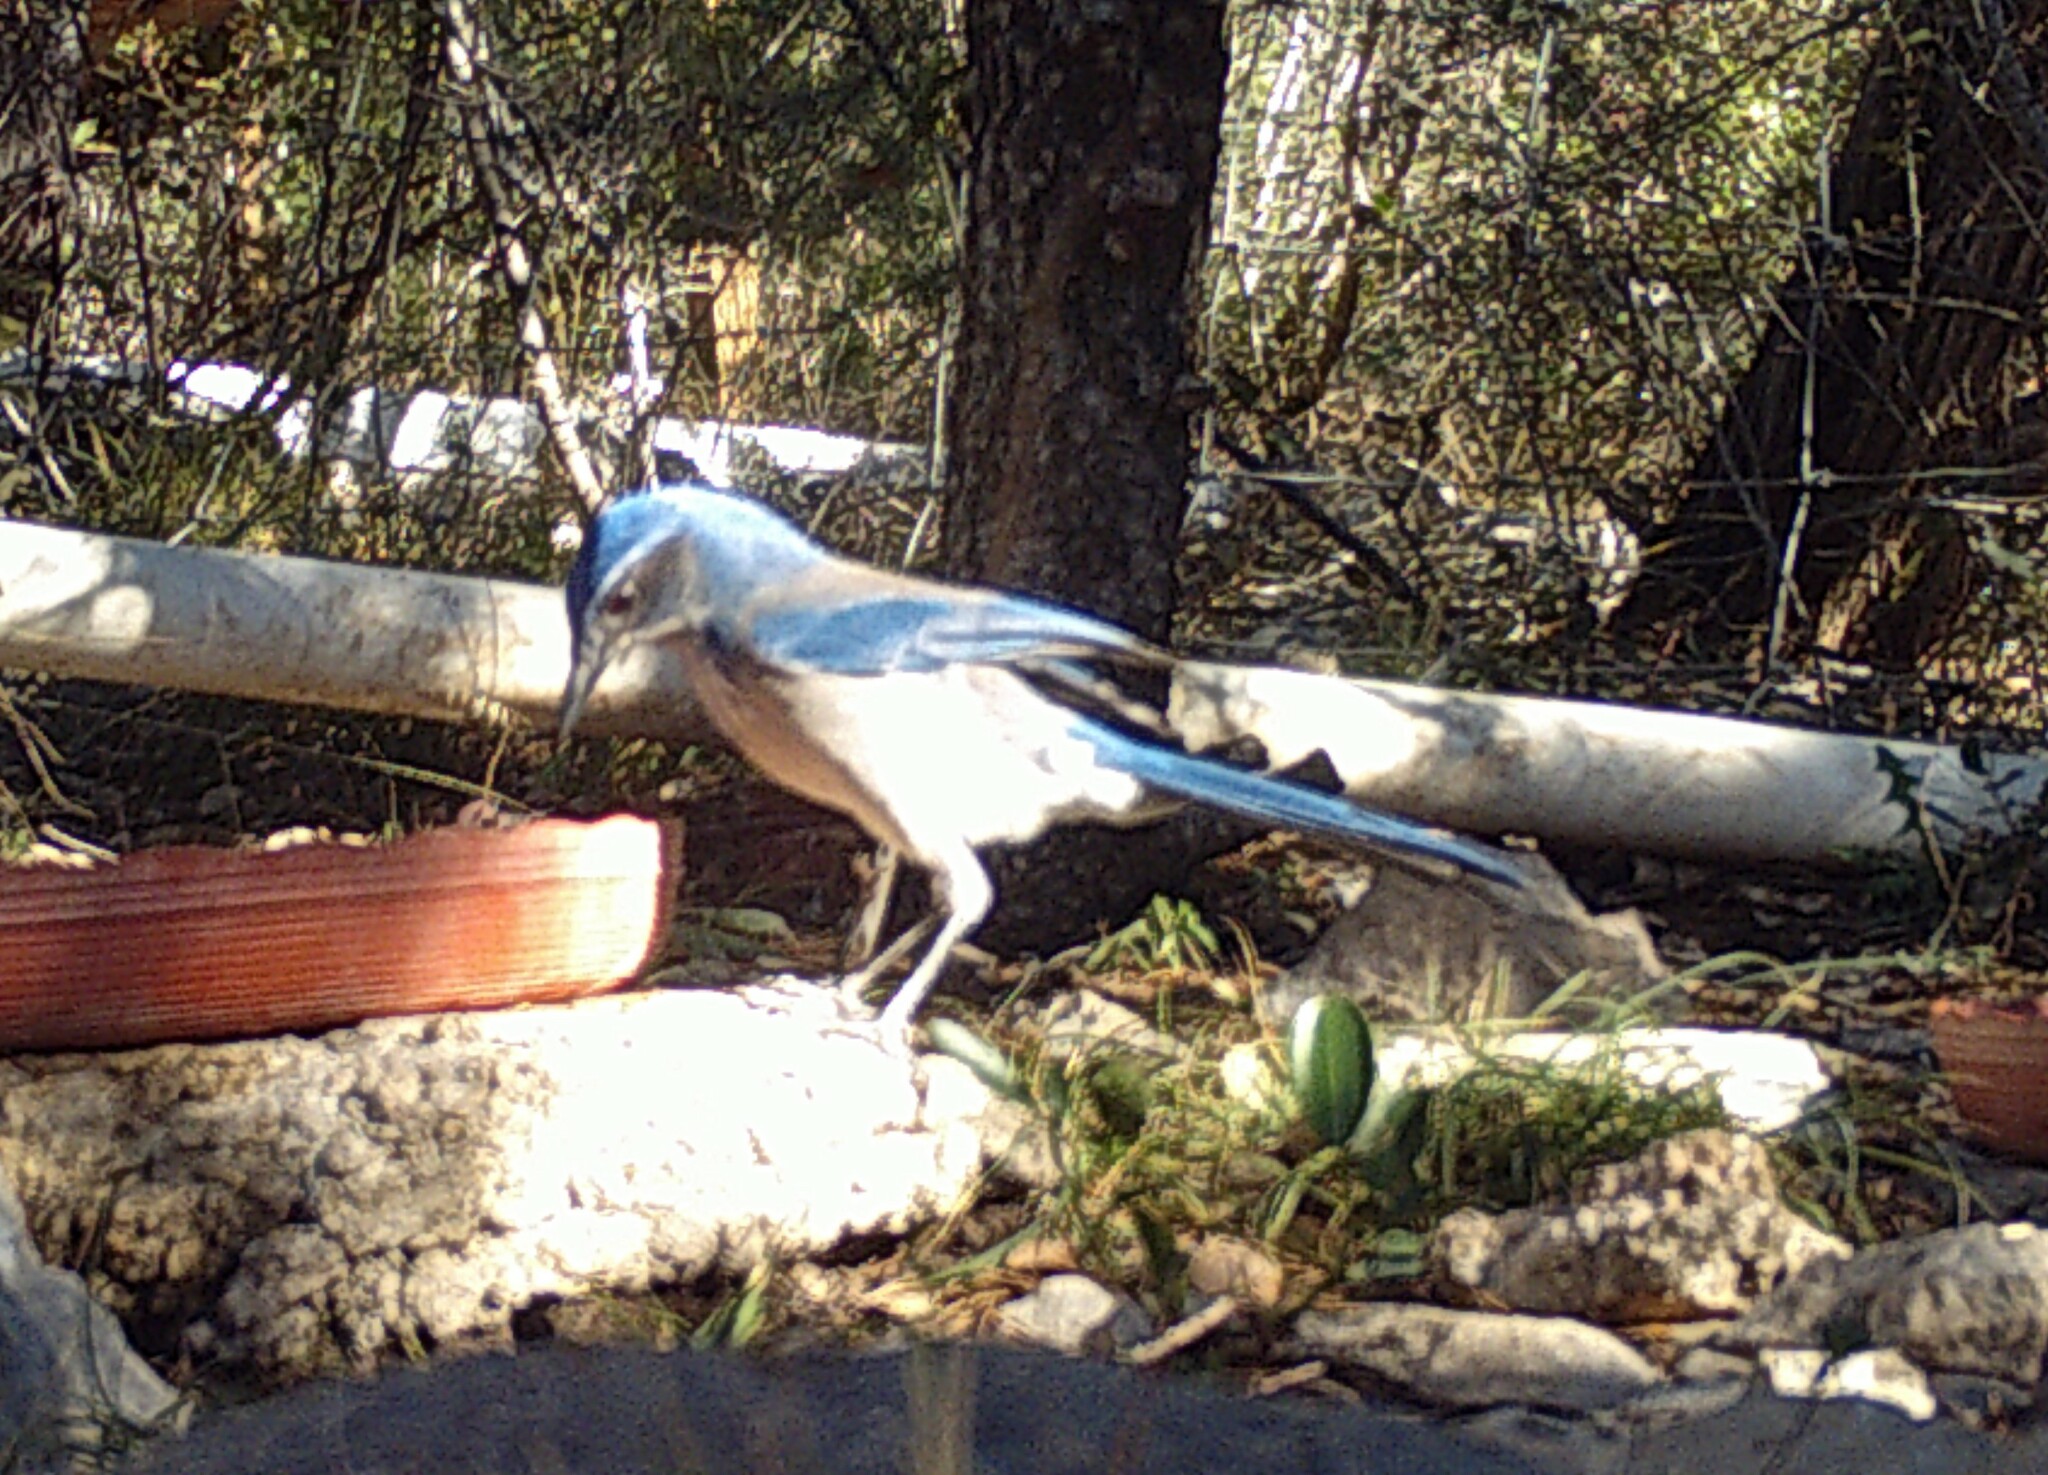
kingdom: Animalia
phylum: Chordata
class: Aves
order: Passeriformes
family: Corvidae
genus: Aphelocoma
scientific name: Aphelocoma woodhouseii
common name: Woodhouse's scrub-jay
